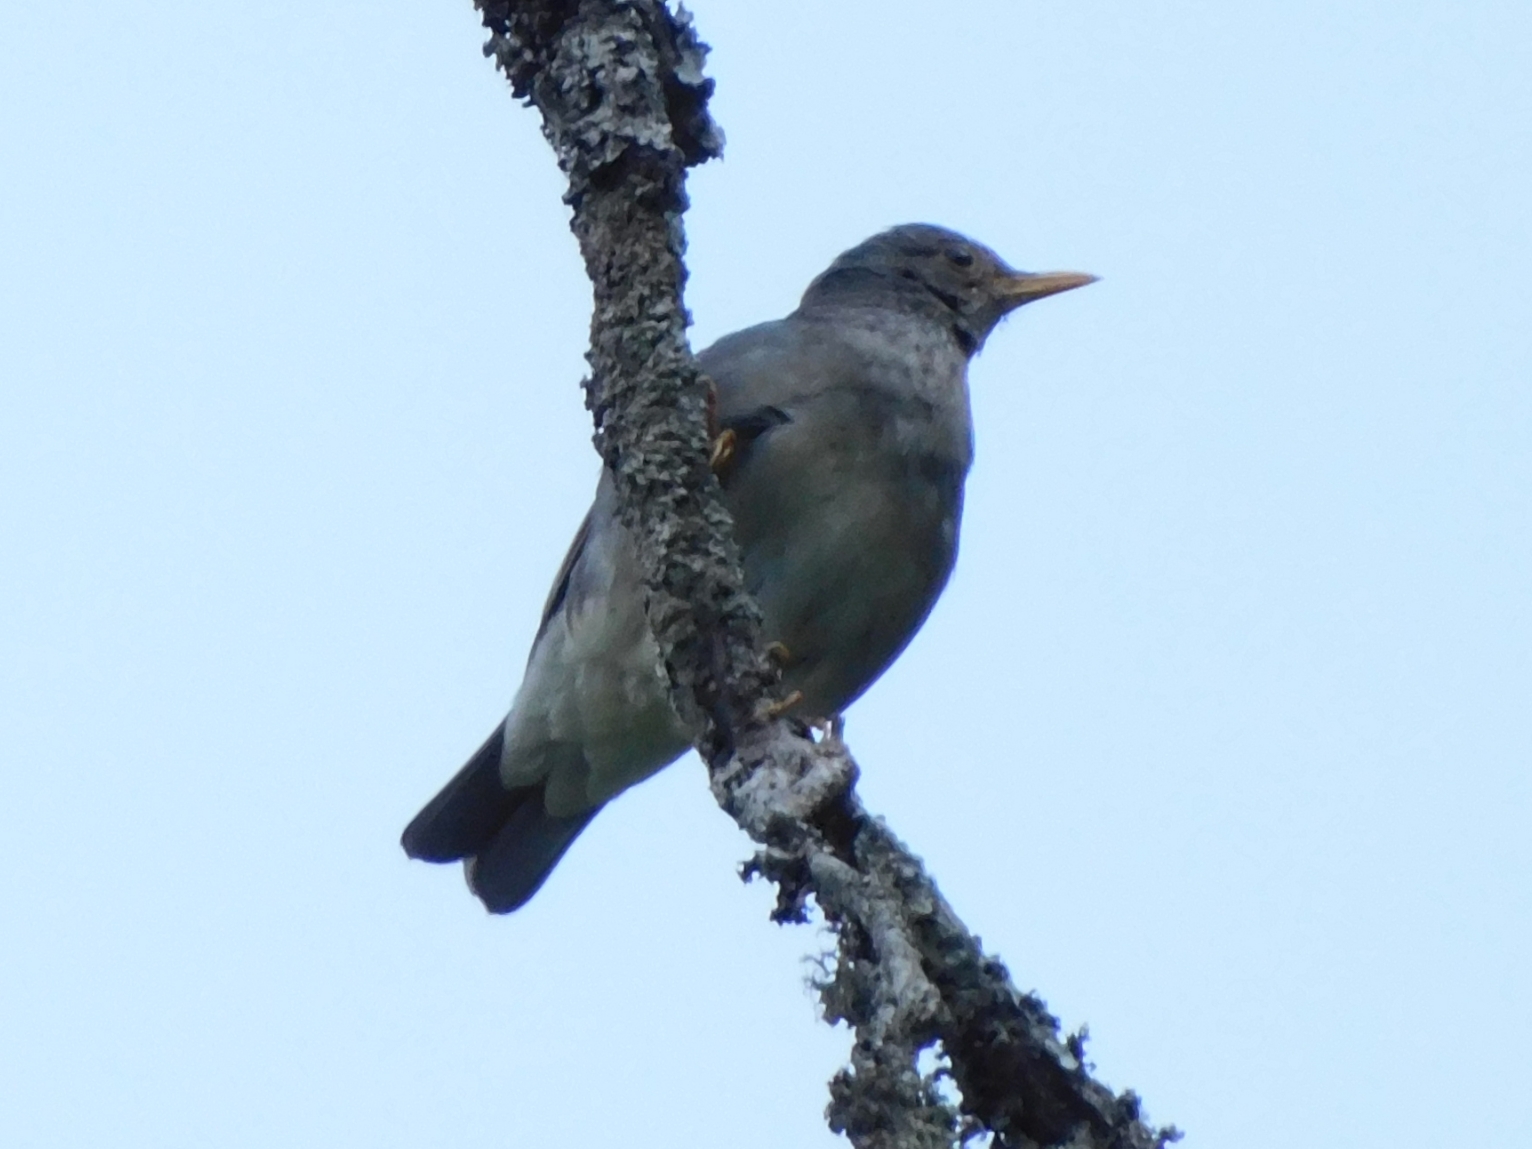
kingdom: Animalia
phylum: Chordata
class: Aves
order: Passeriformes
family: Turdidae
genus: Turdus
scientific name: Turdus unicolor
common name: Tickell's thrush
